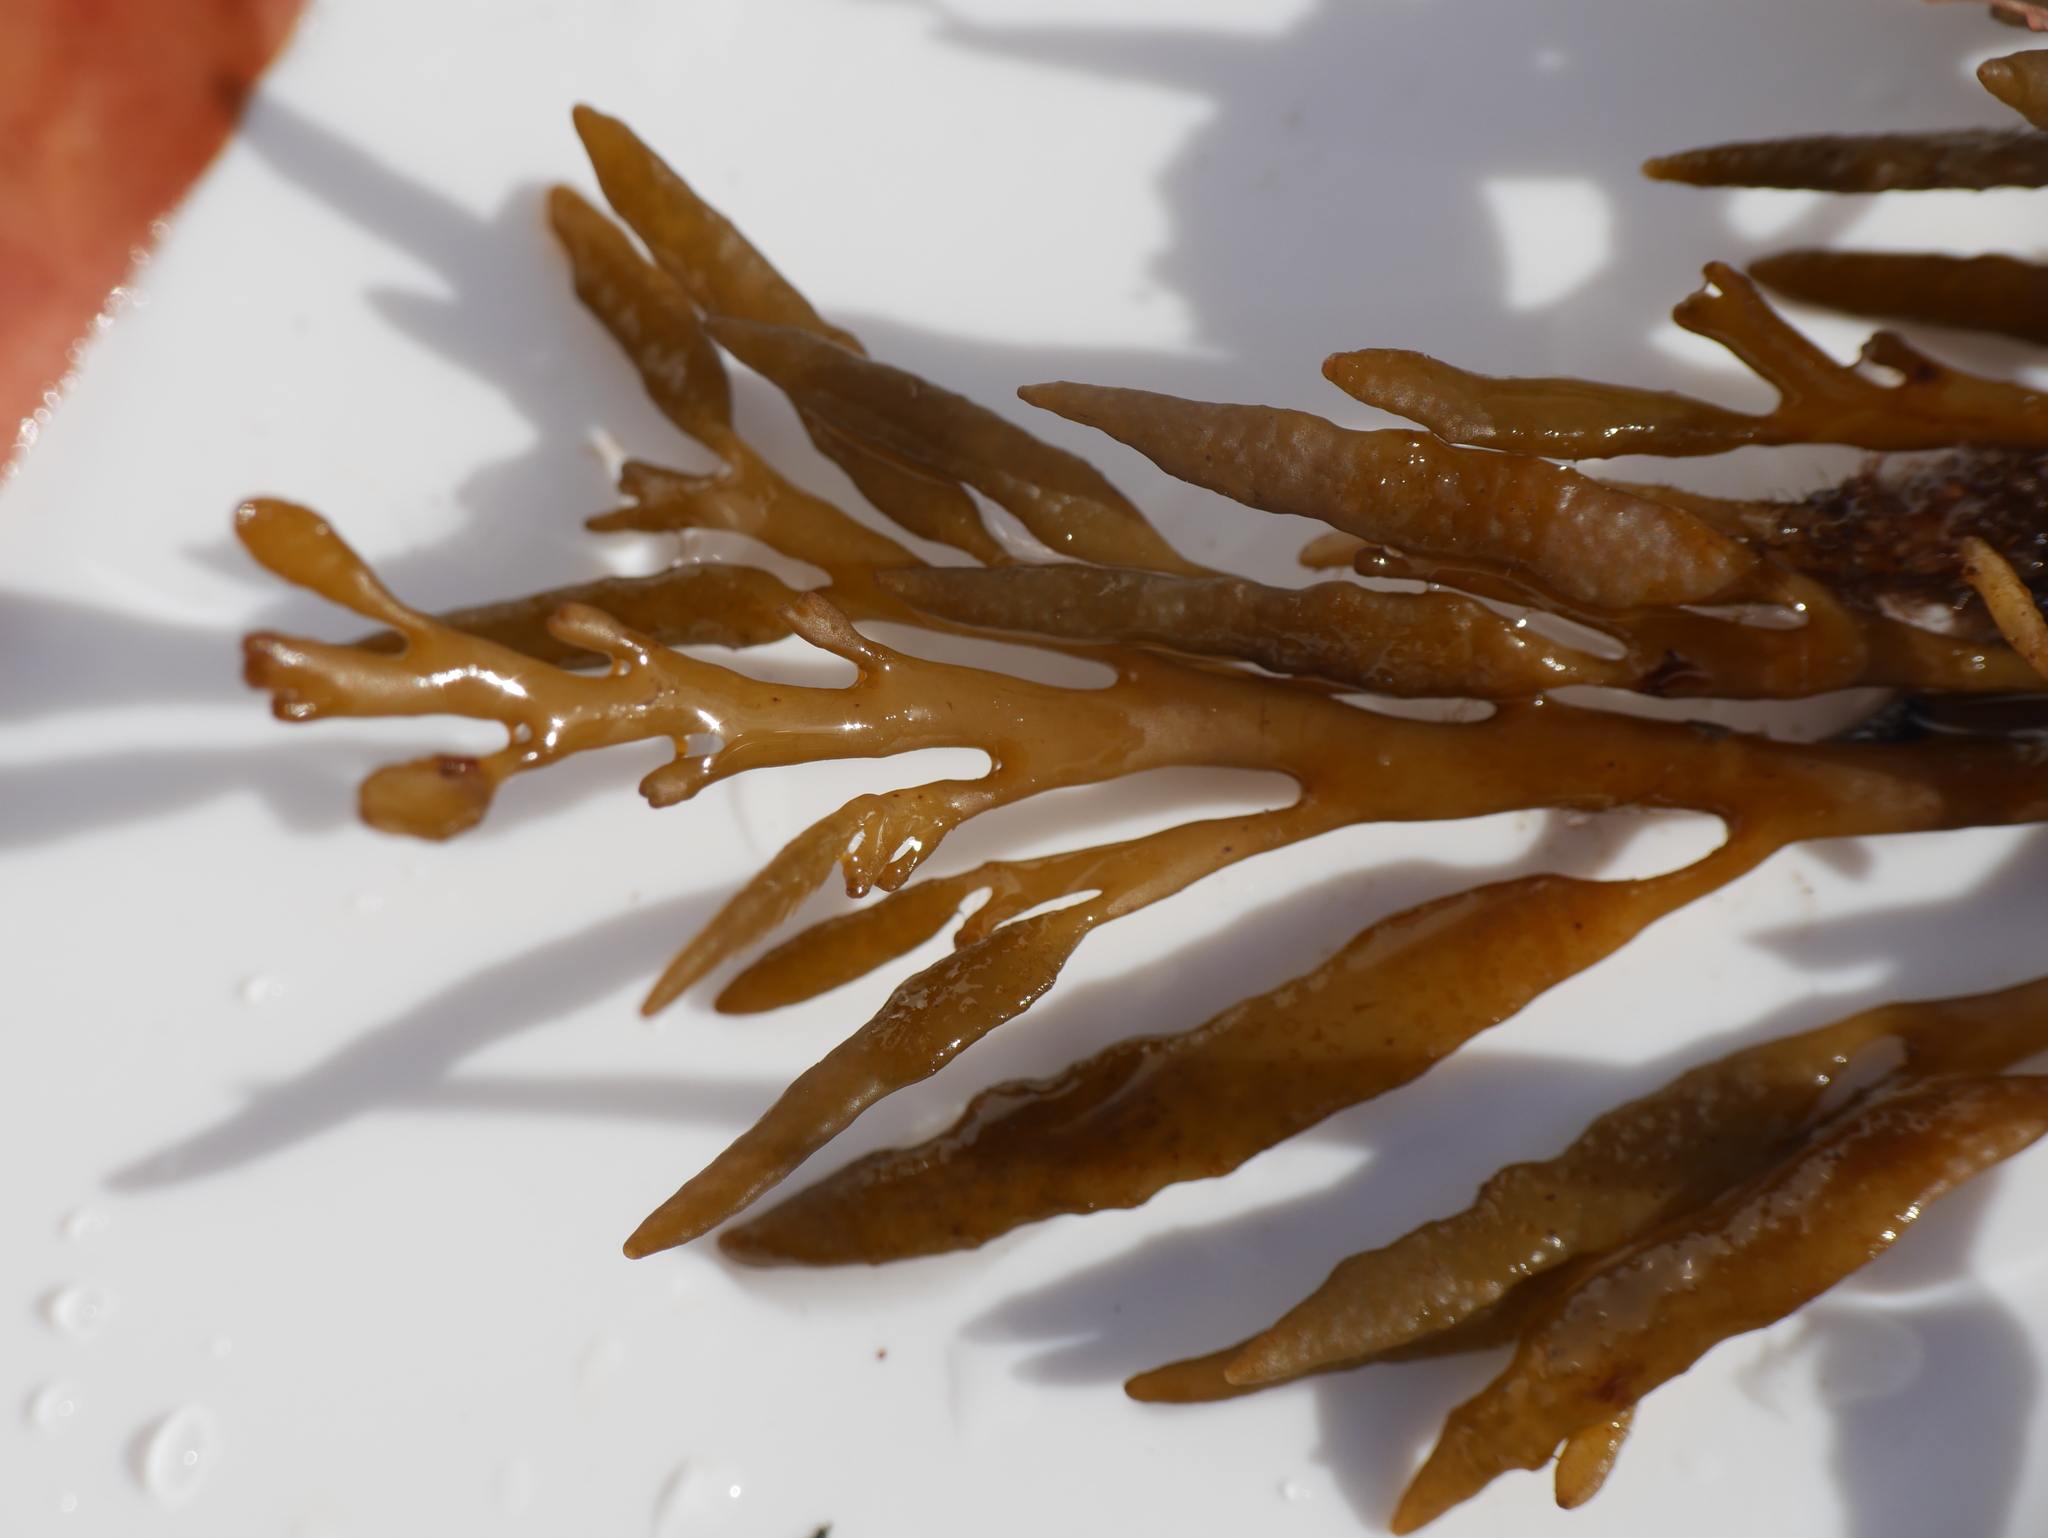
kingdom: Chromista
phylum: Ochrophyta
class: Phaeophyceae
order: Fucales
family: Sargassaceae
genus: Halidrys
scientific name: Halidrys siliquosa
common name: Sea oak
